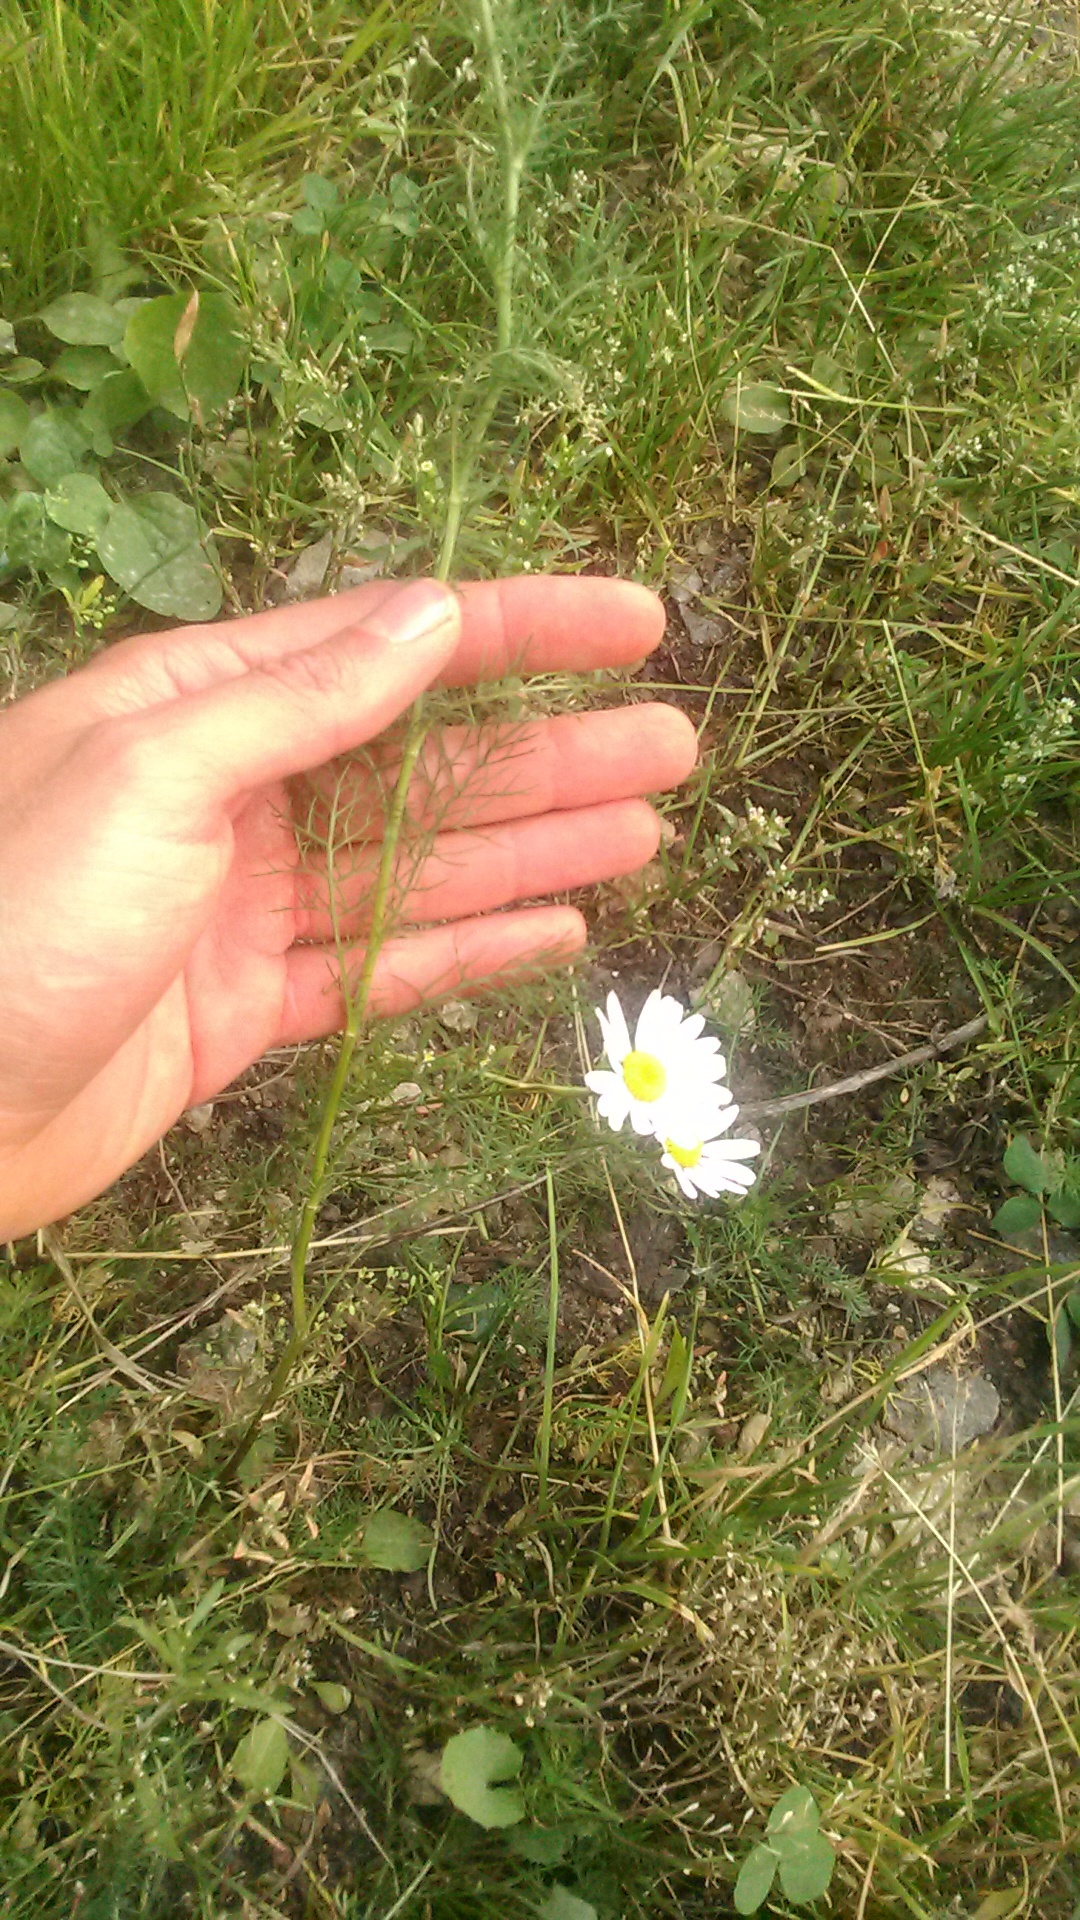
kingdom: Plantae
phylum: Tracheophyta
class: Magnoliopsida
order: Asterales
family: Asteraceae
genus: Tripleurospermum
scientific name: Tripleurospermum inodorum
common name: Scentless mayweed
